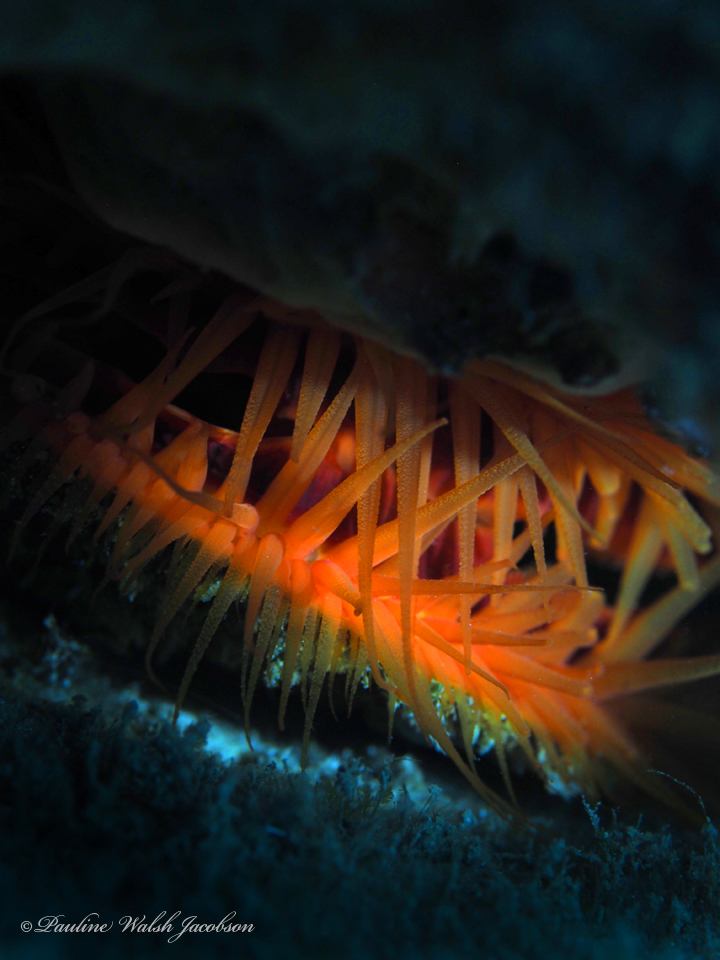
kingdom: Animalia
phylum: Mollusca
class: Bivalvia
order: Limida
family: Limidae
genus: Ctenoides
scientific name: Ctenoides scaber
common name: Rough fileclam
